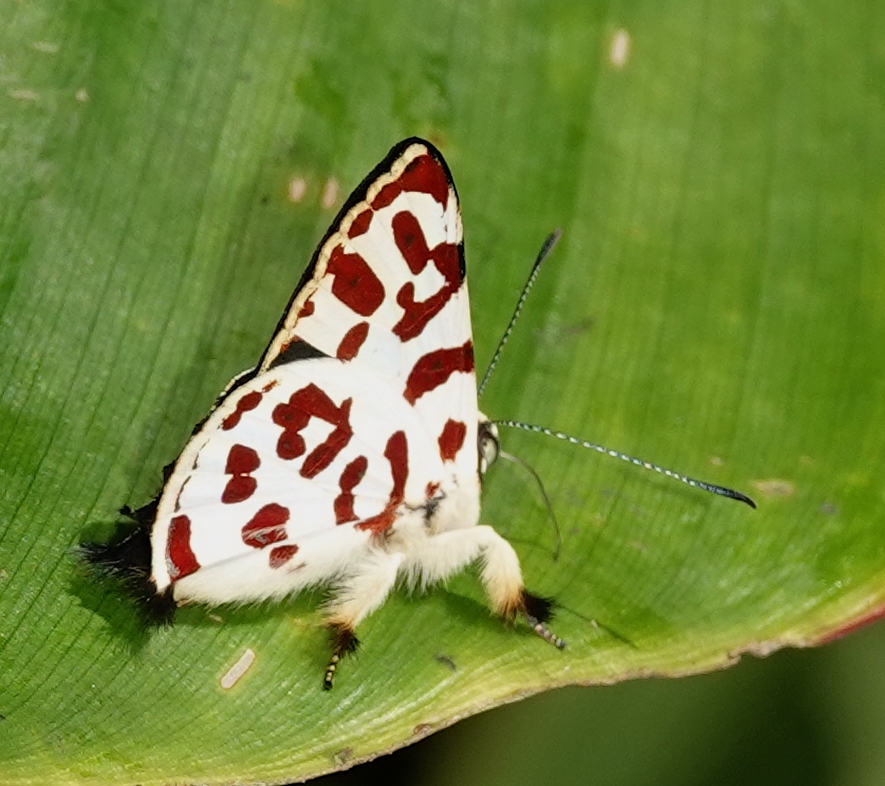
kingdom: Animalia
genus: Anteros
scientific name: Anteros bracteatus
